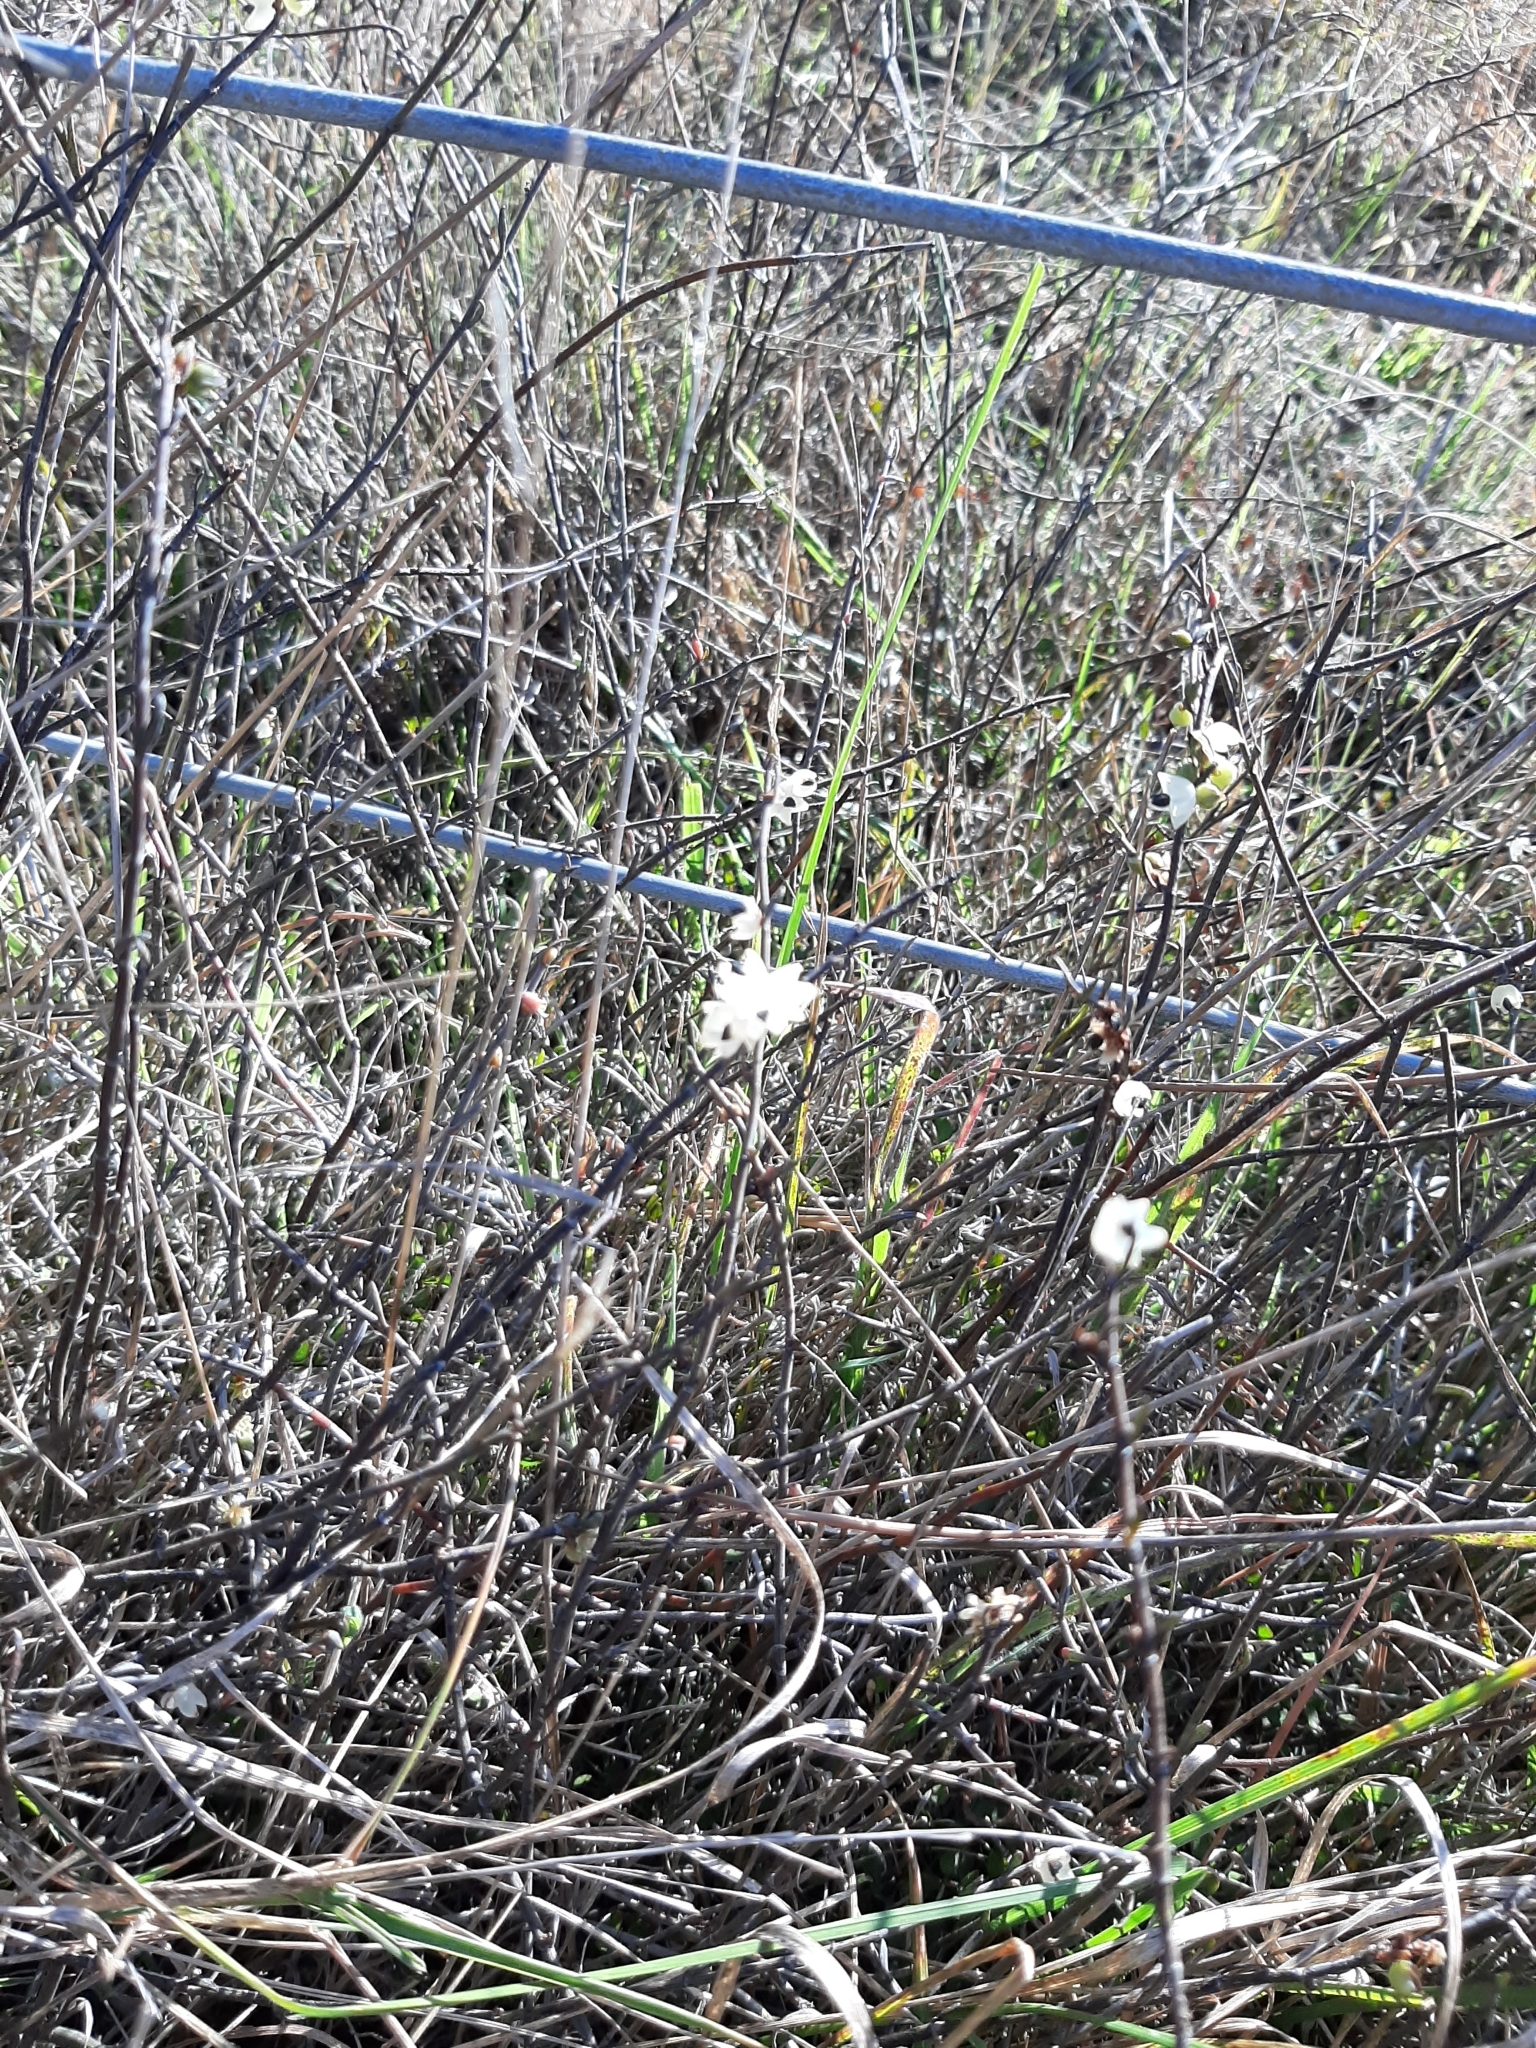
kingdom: Plantae
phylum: Tracheophyta
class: Magnoliopsida
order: Caryophyllales
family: Polygonaceae
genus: Muehlenbeckia
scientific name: Muehlenbeckia ephedroides
